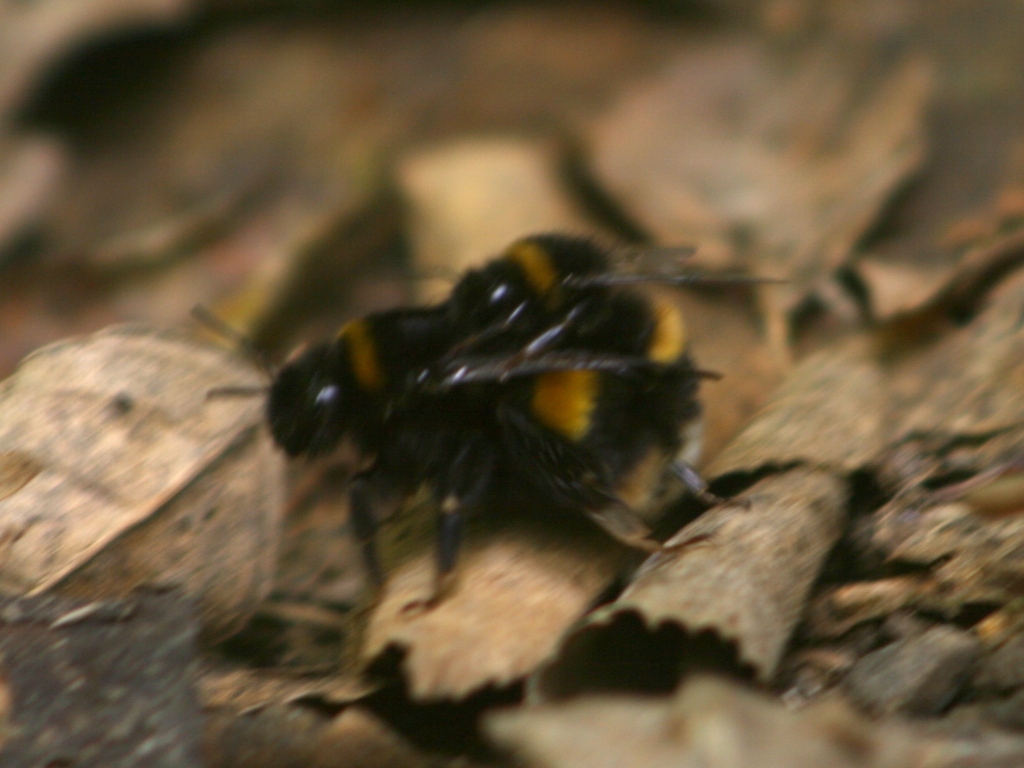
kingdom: Animalia
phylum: Arthropoda
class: Insecta
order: Hymenoptera
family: Apidae
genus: Bombus
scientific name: Bombus terrestris
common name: Buff-tailed bumblebee
